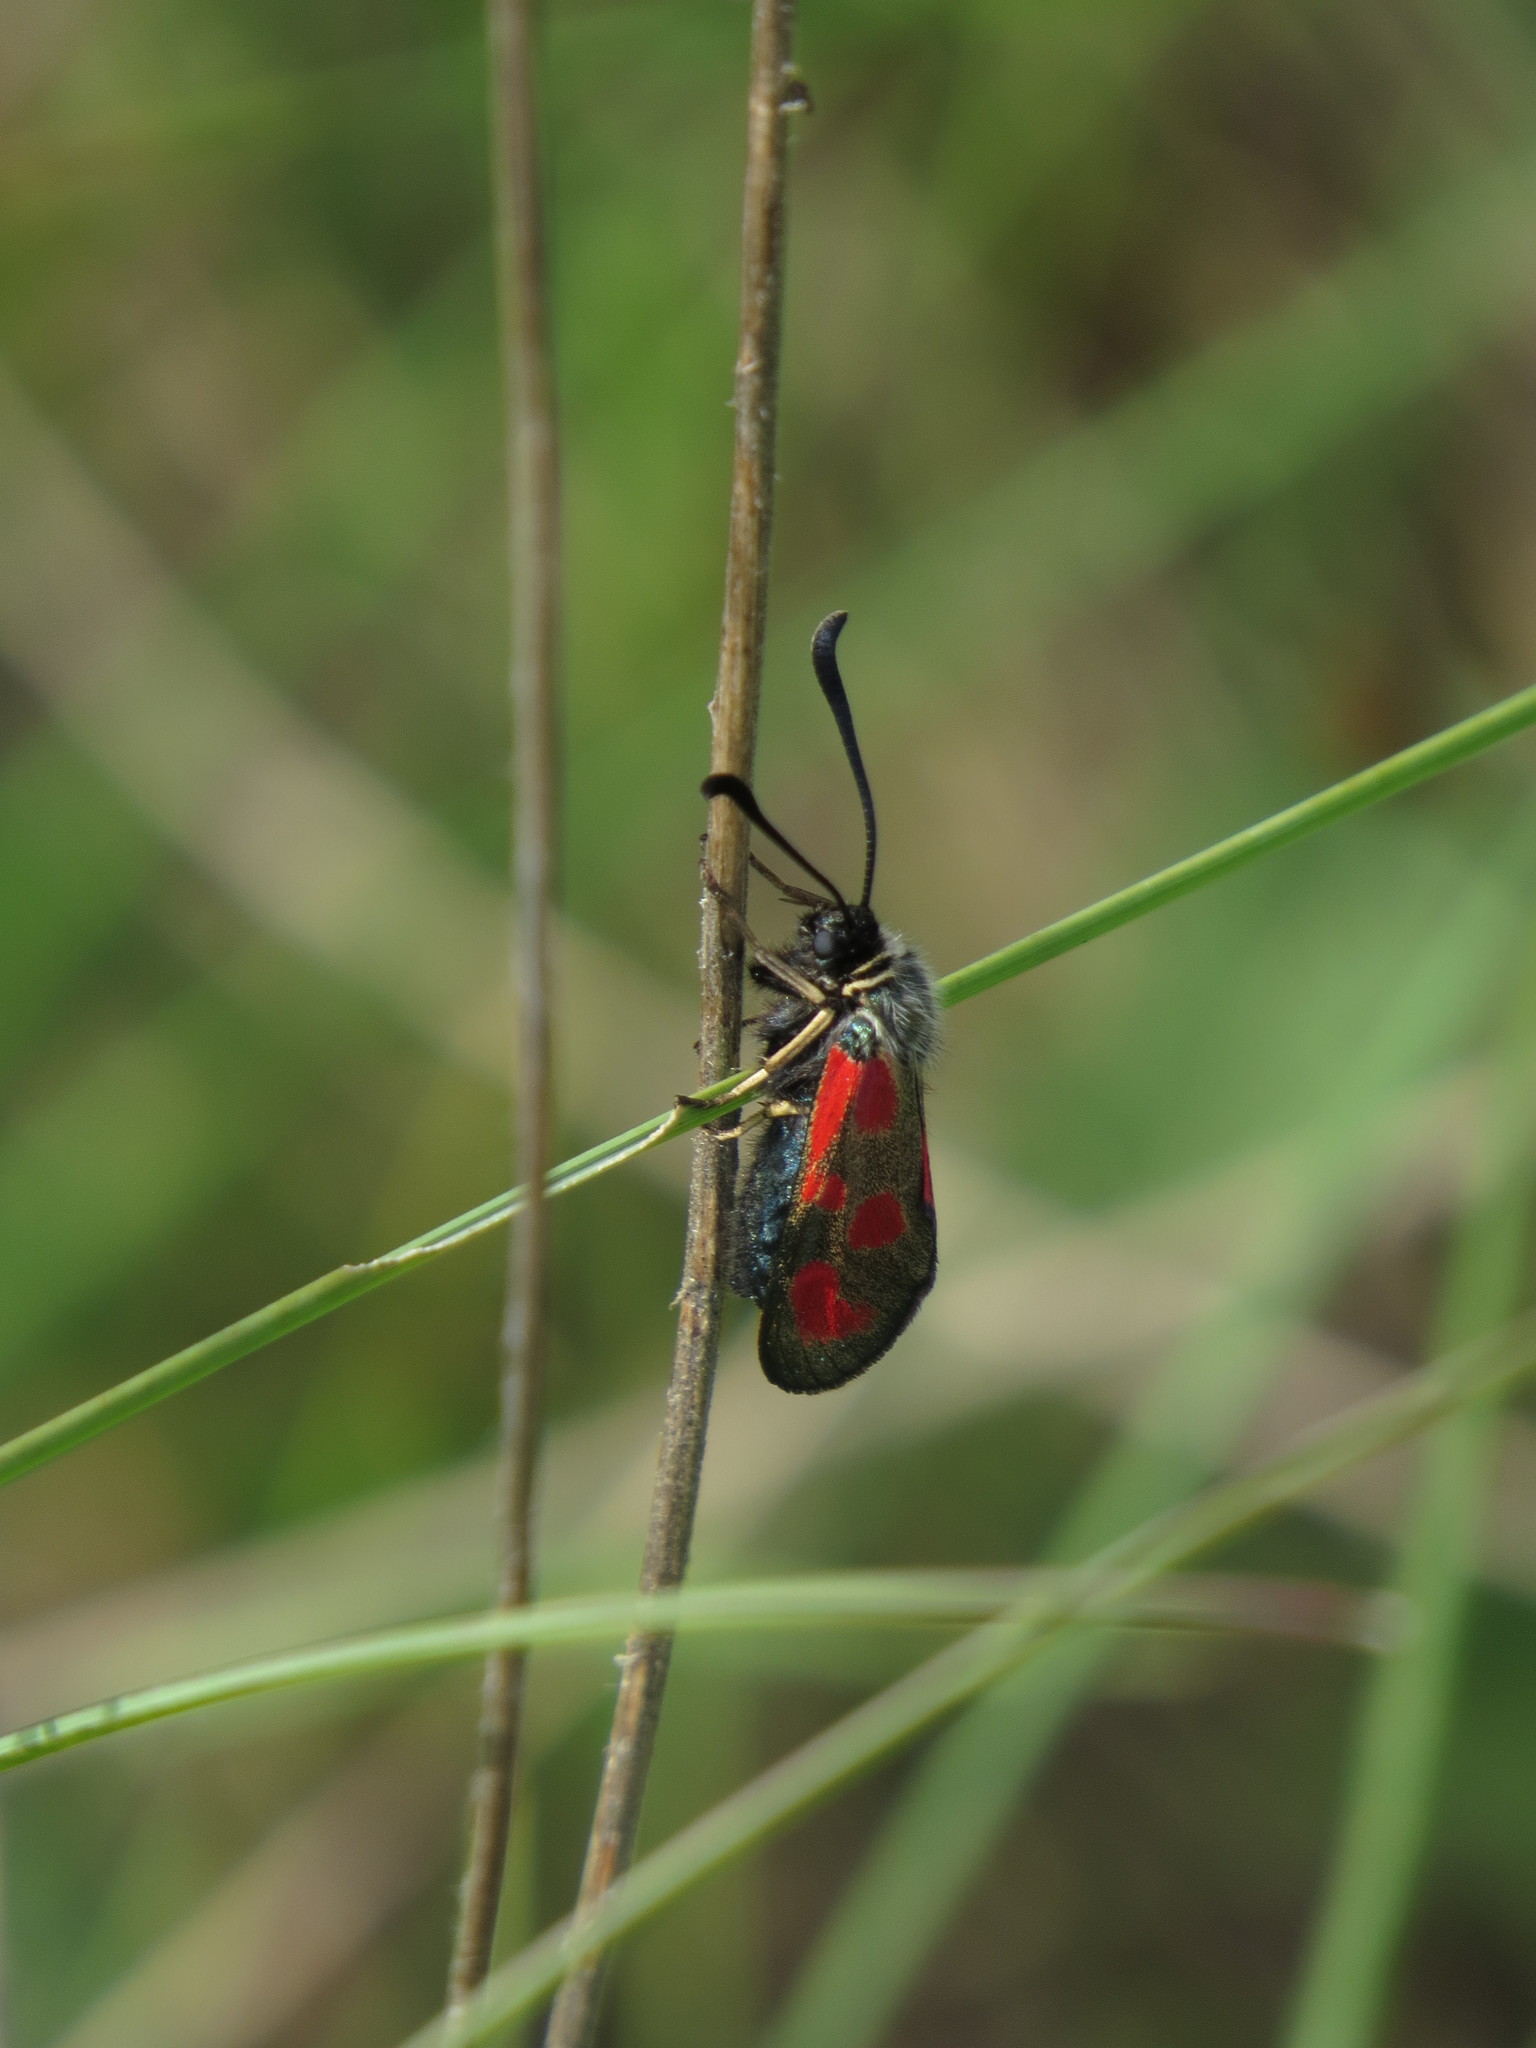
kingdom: Animalia
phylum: Arthropoda
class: Insecta
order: Lepidoptera
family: Zygaenidae
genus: Zygaena
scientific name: Zygaena loti
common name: Slender scotch burnet
